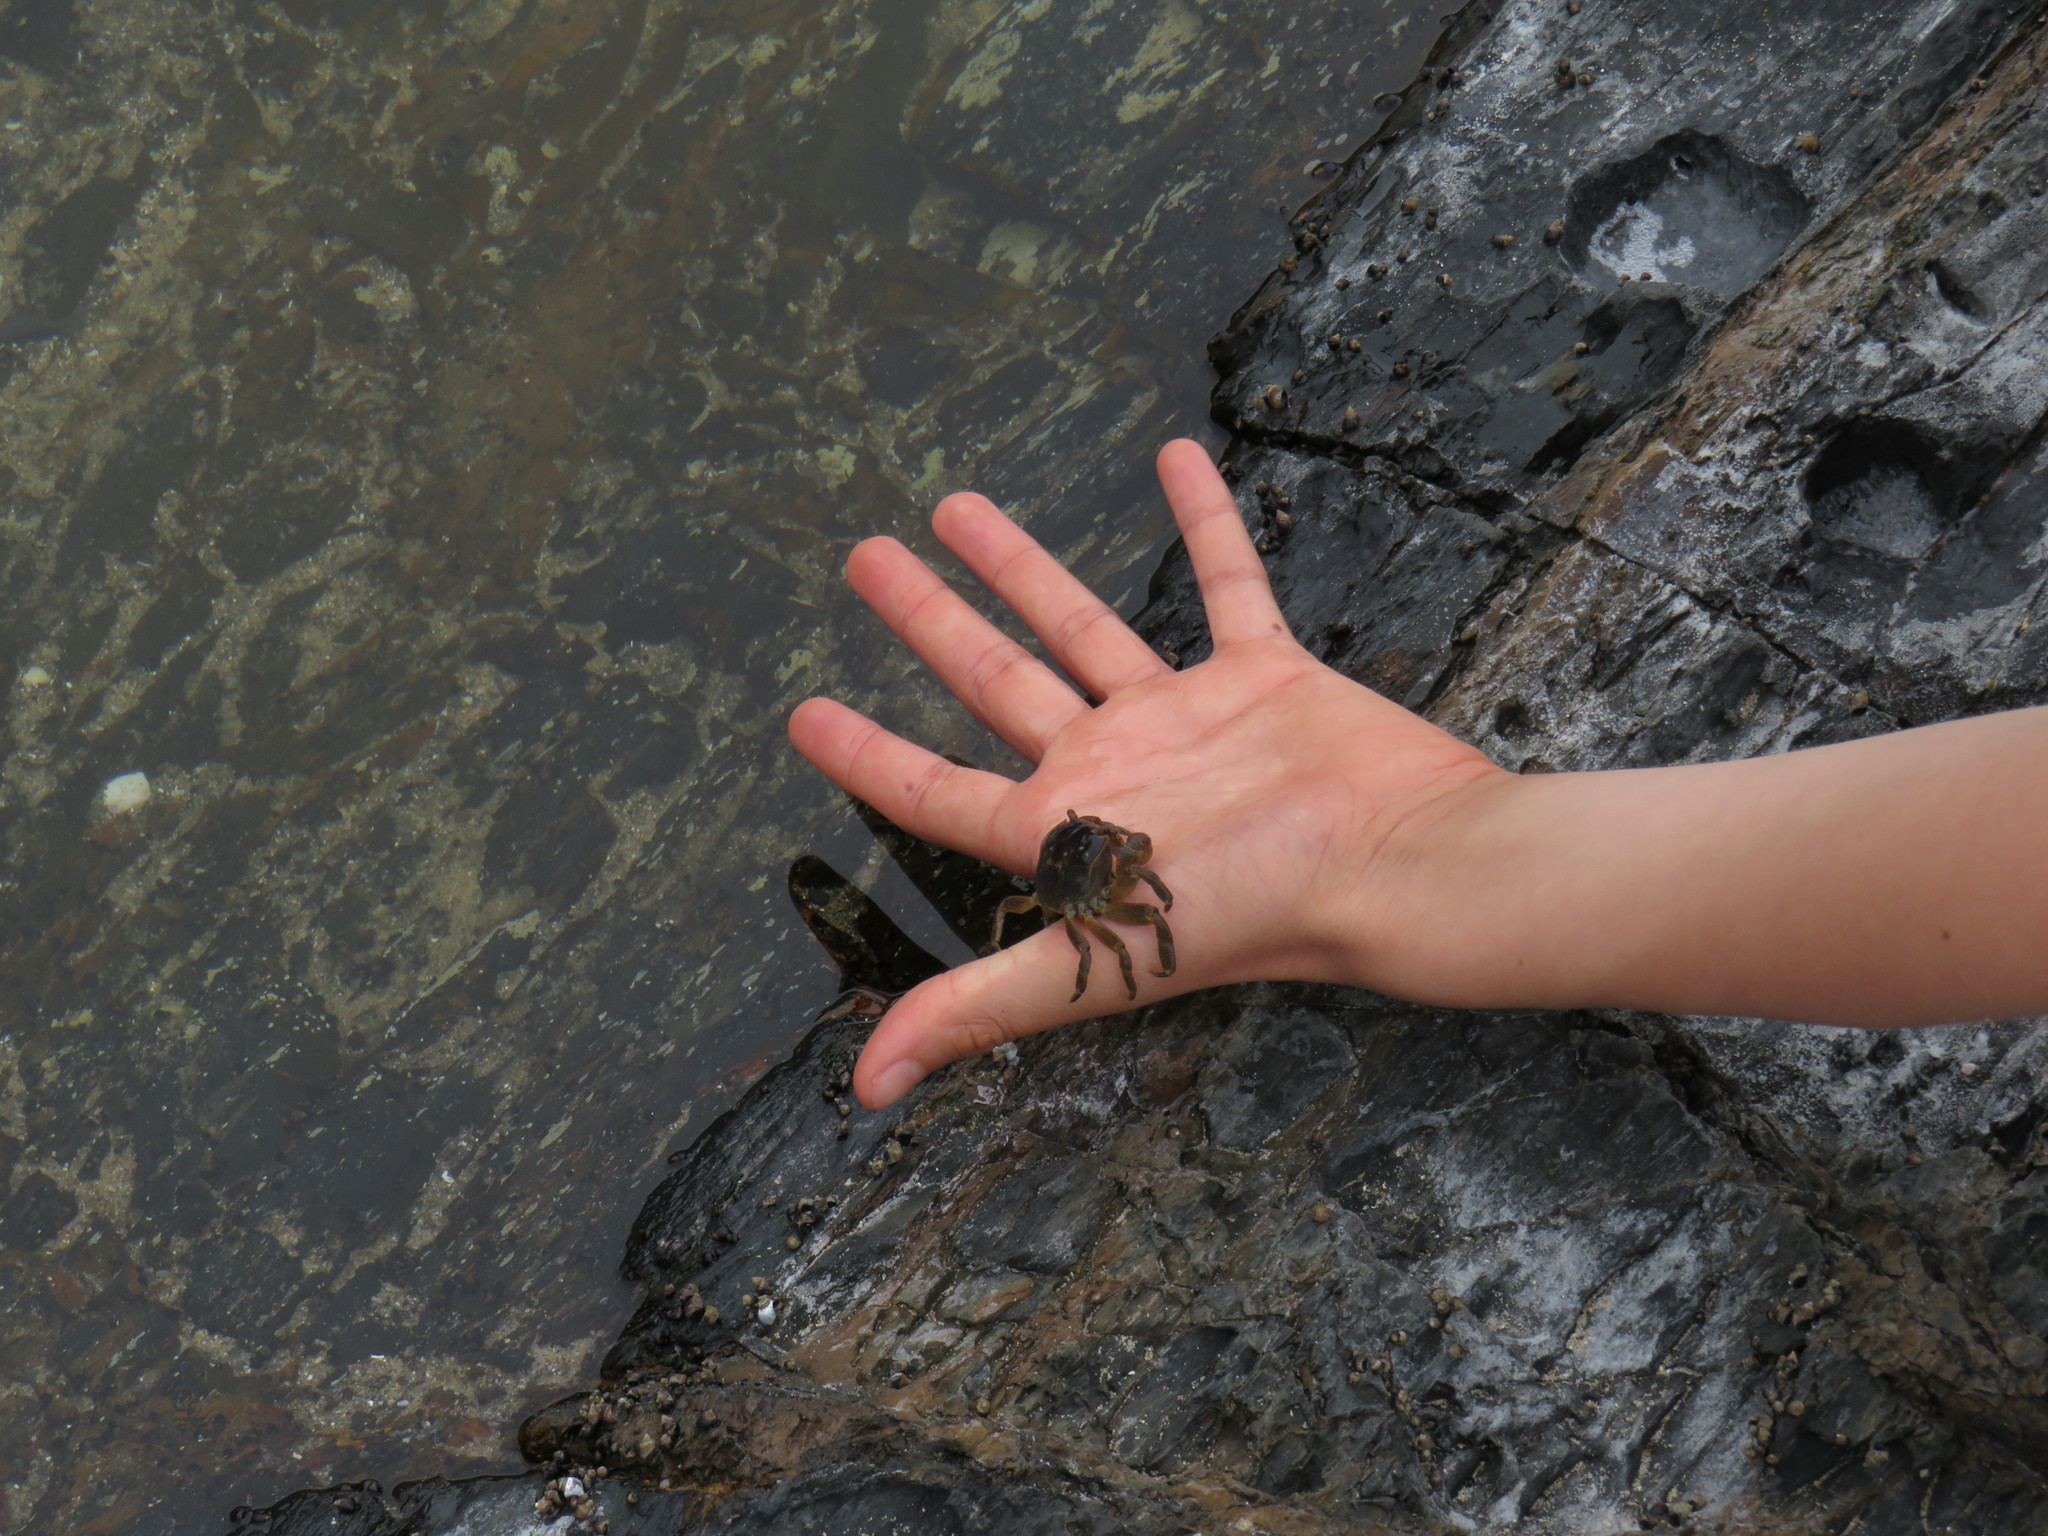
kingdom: Animalia
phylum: Arthropoda
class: Malacostraca
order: Decapoda
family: Varunidae
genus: Cyclograpsus
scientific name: Cyclograpsus punctatus
